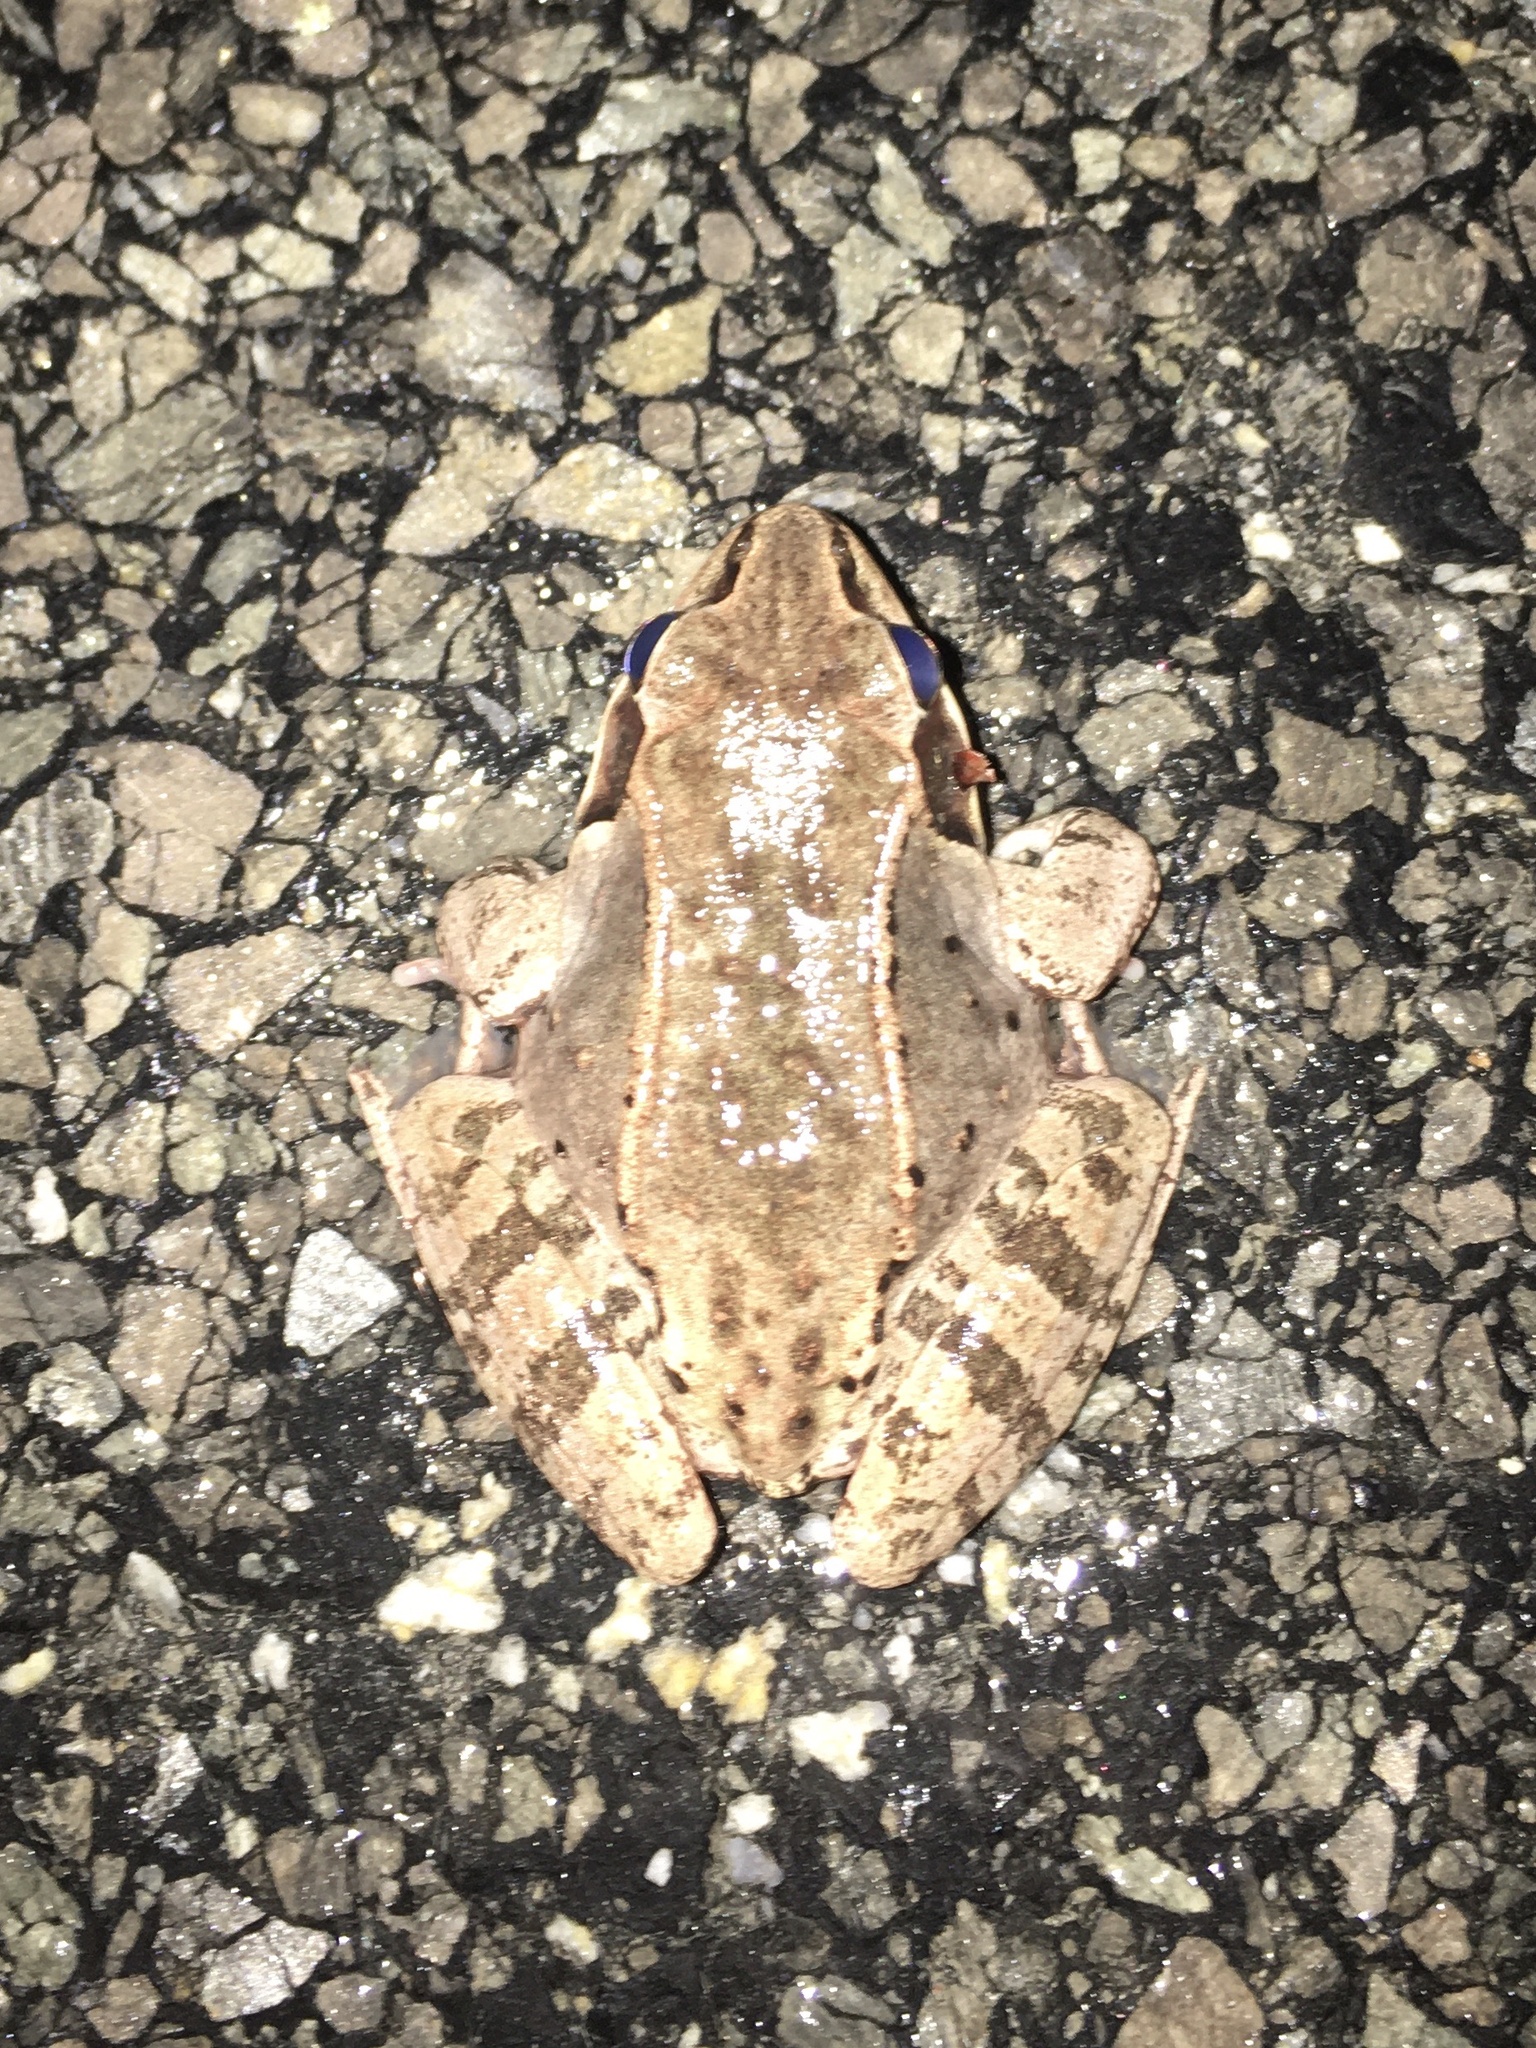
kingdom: Animalia
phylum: Chordata
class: Amphibia
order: Anura
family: Ranidae
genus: Lithobates
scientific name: Lithobates sylvaticus
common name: Wood frog
